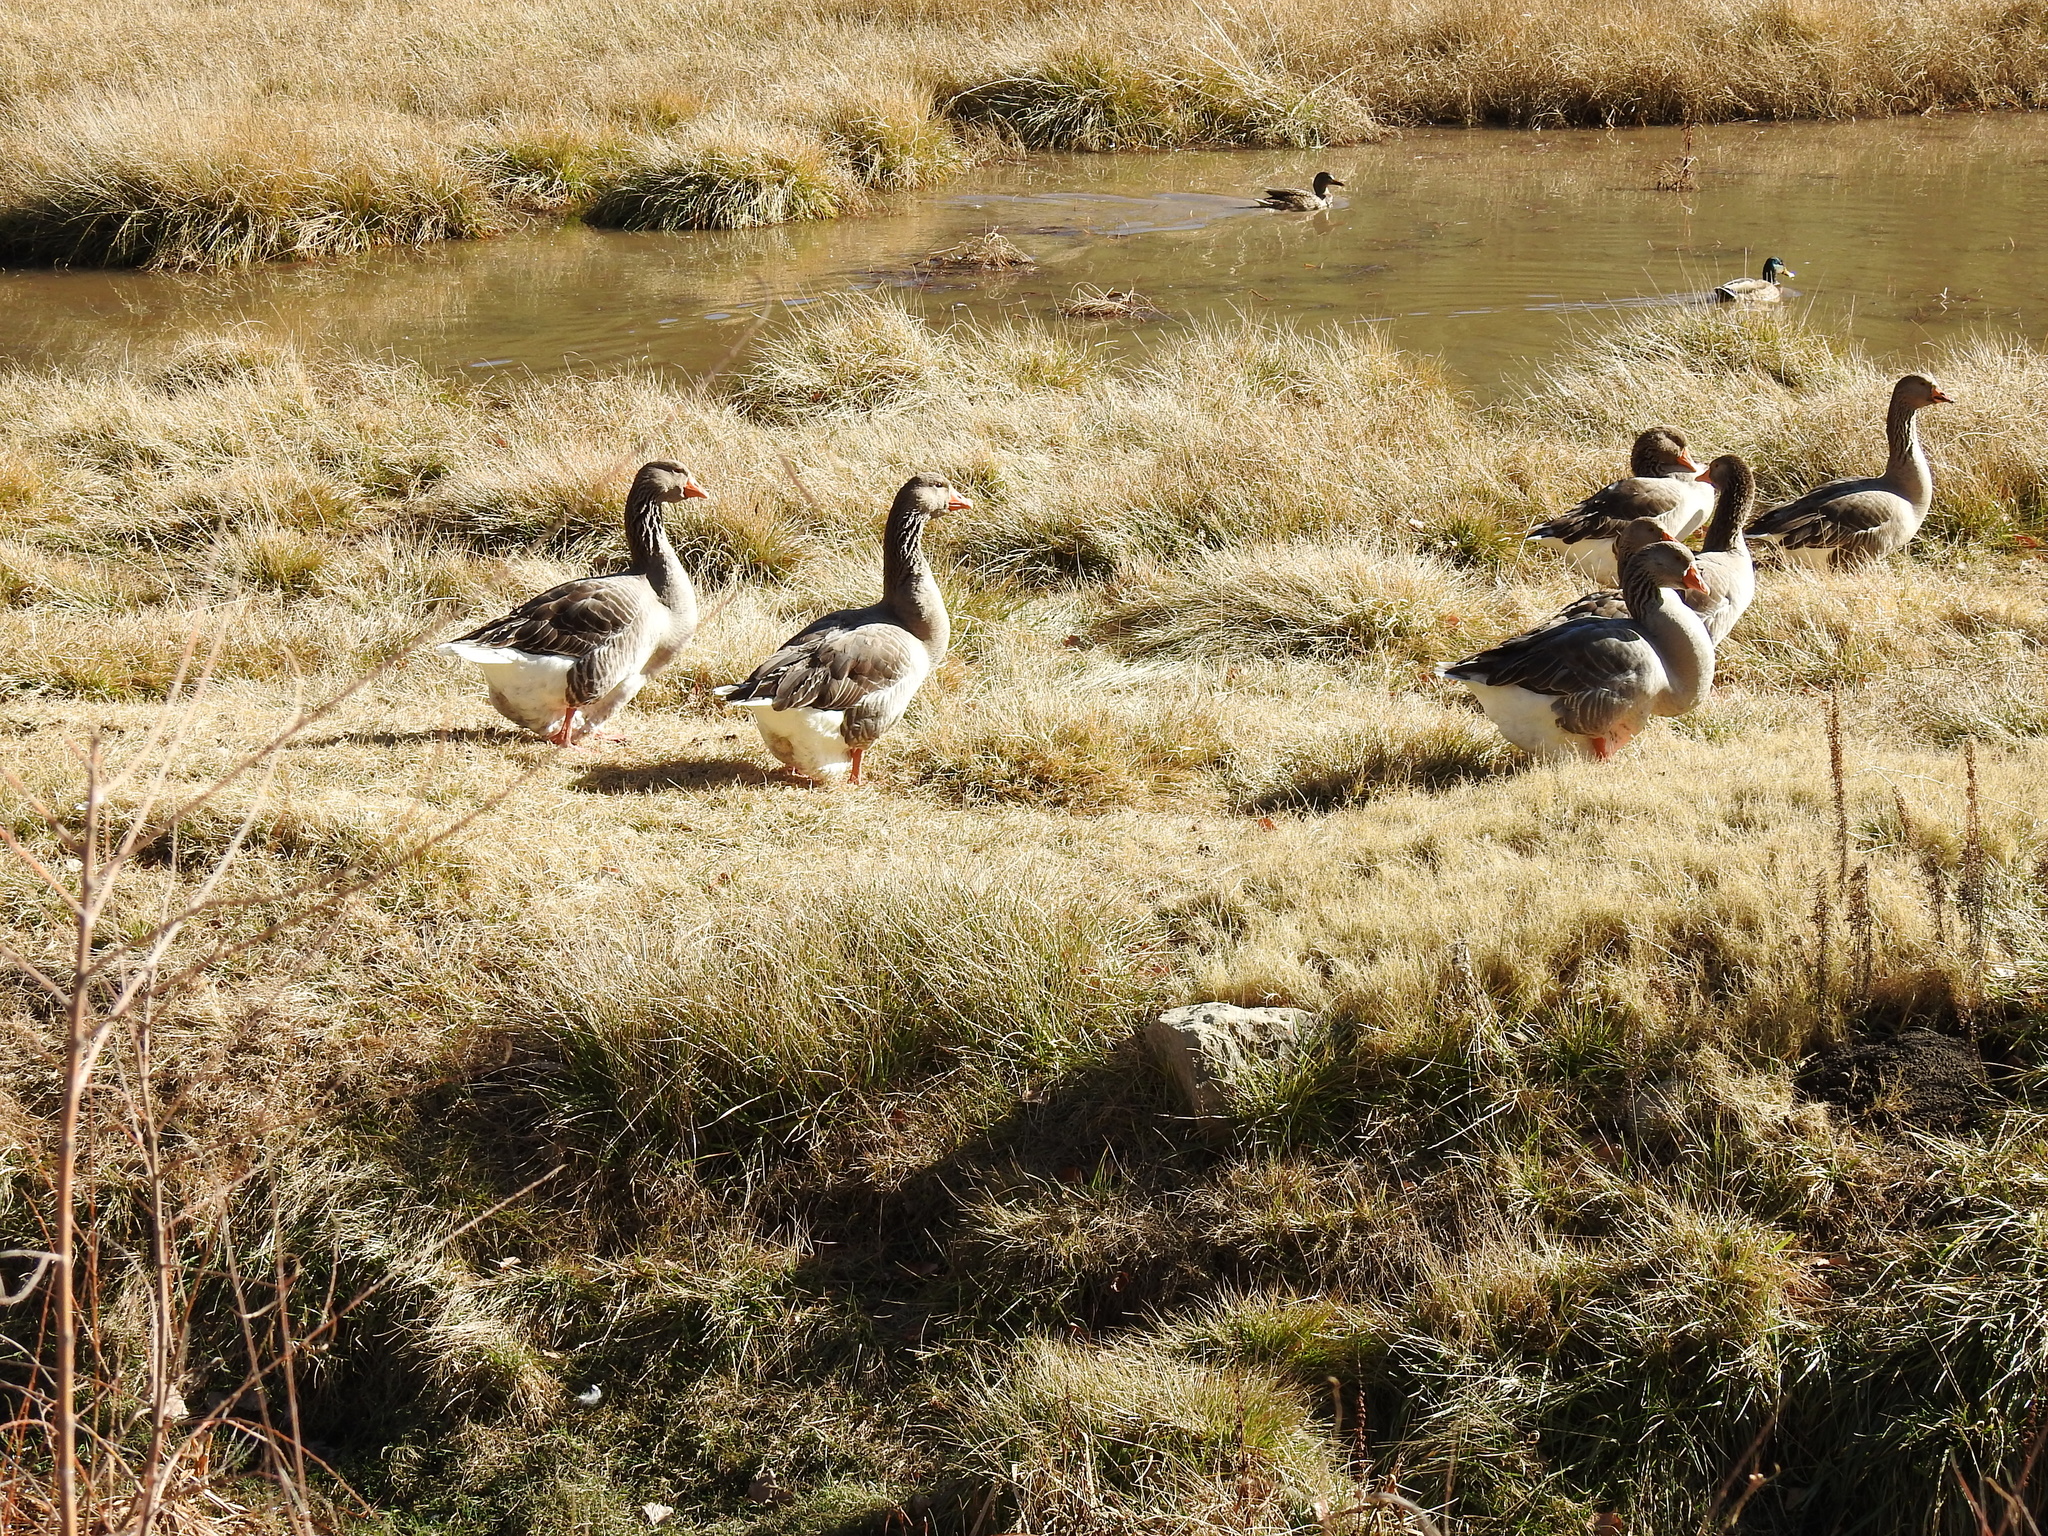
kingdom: Animalia
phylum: Chordata
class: Aves
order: Anseriformes
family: Anatidae
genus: Anser
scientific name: Anser anser
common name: Greylag goose
